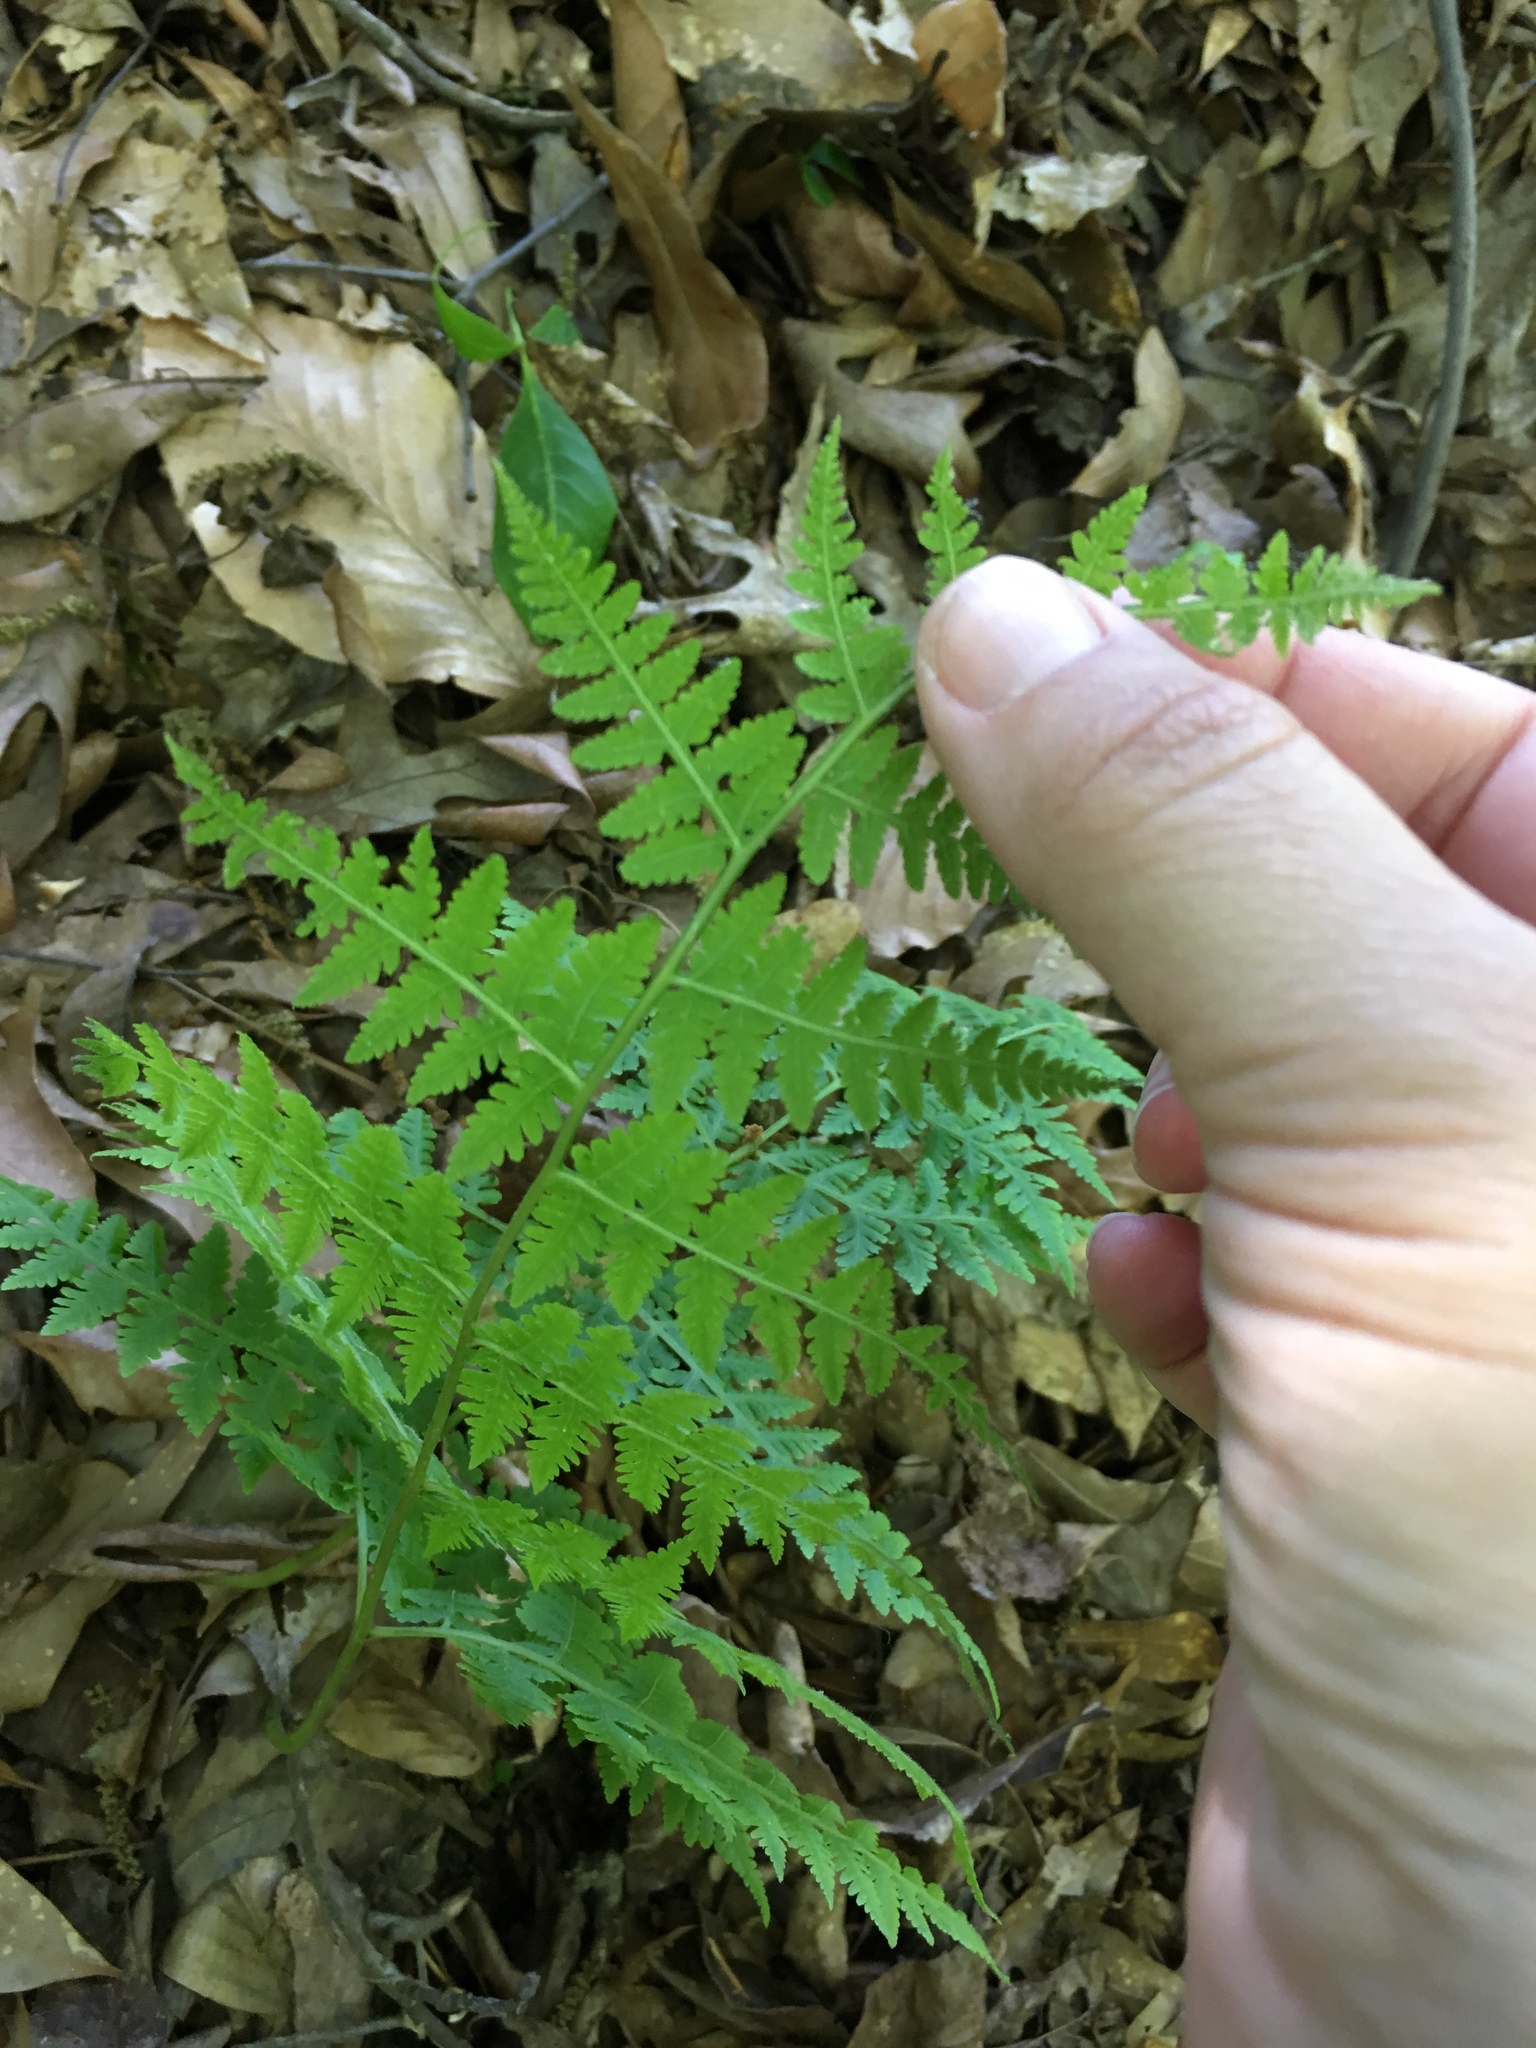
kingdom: Plantae
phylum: Tracheophyta
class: Polypodiopsida
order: Polypodiales
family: Thelypteridaceae
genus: Macrothelypteris
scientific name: Macrothelypteris torresiana
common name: Swordfern
